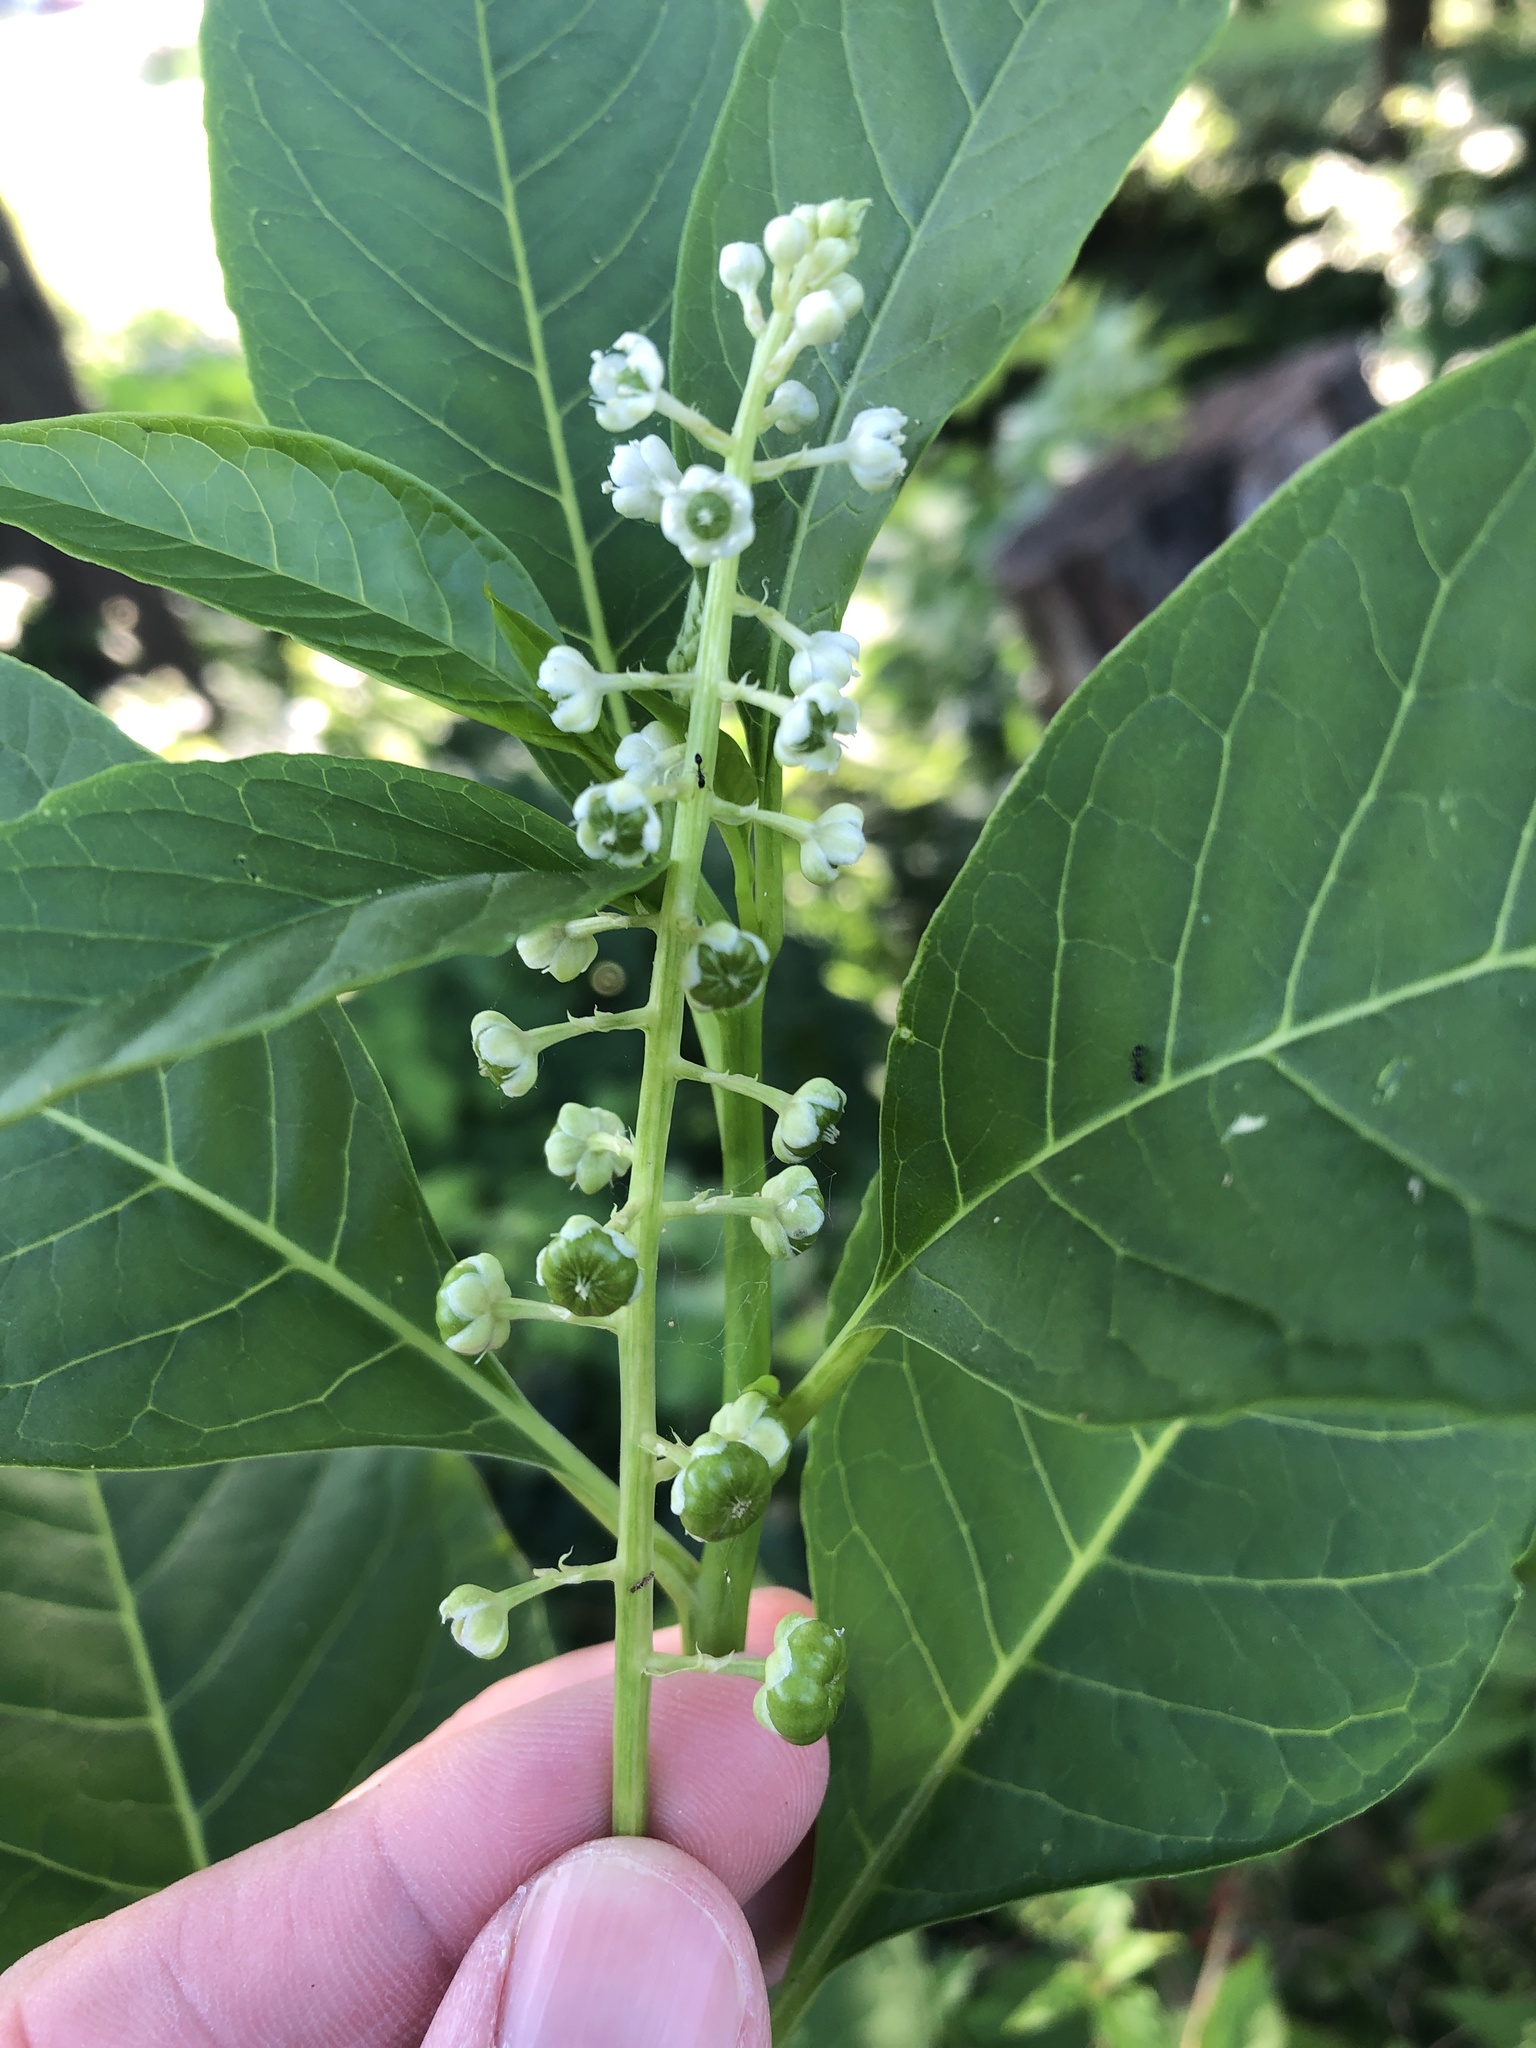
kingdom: Plantae
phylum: Tracheophyta
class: Magnoliopsida
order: Caryophyllales
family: Phytolaccaceae
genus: Phytolacca
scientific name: Phytolacca americana
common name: American pokeweed
